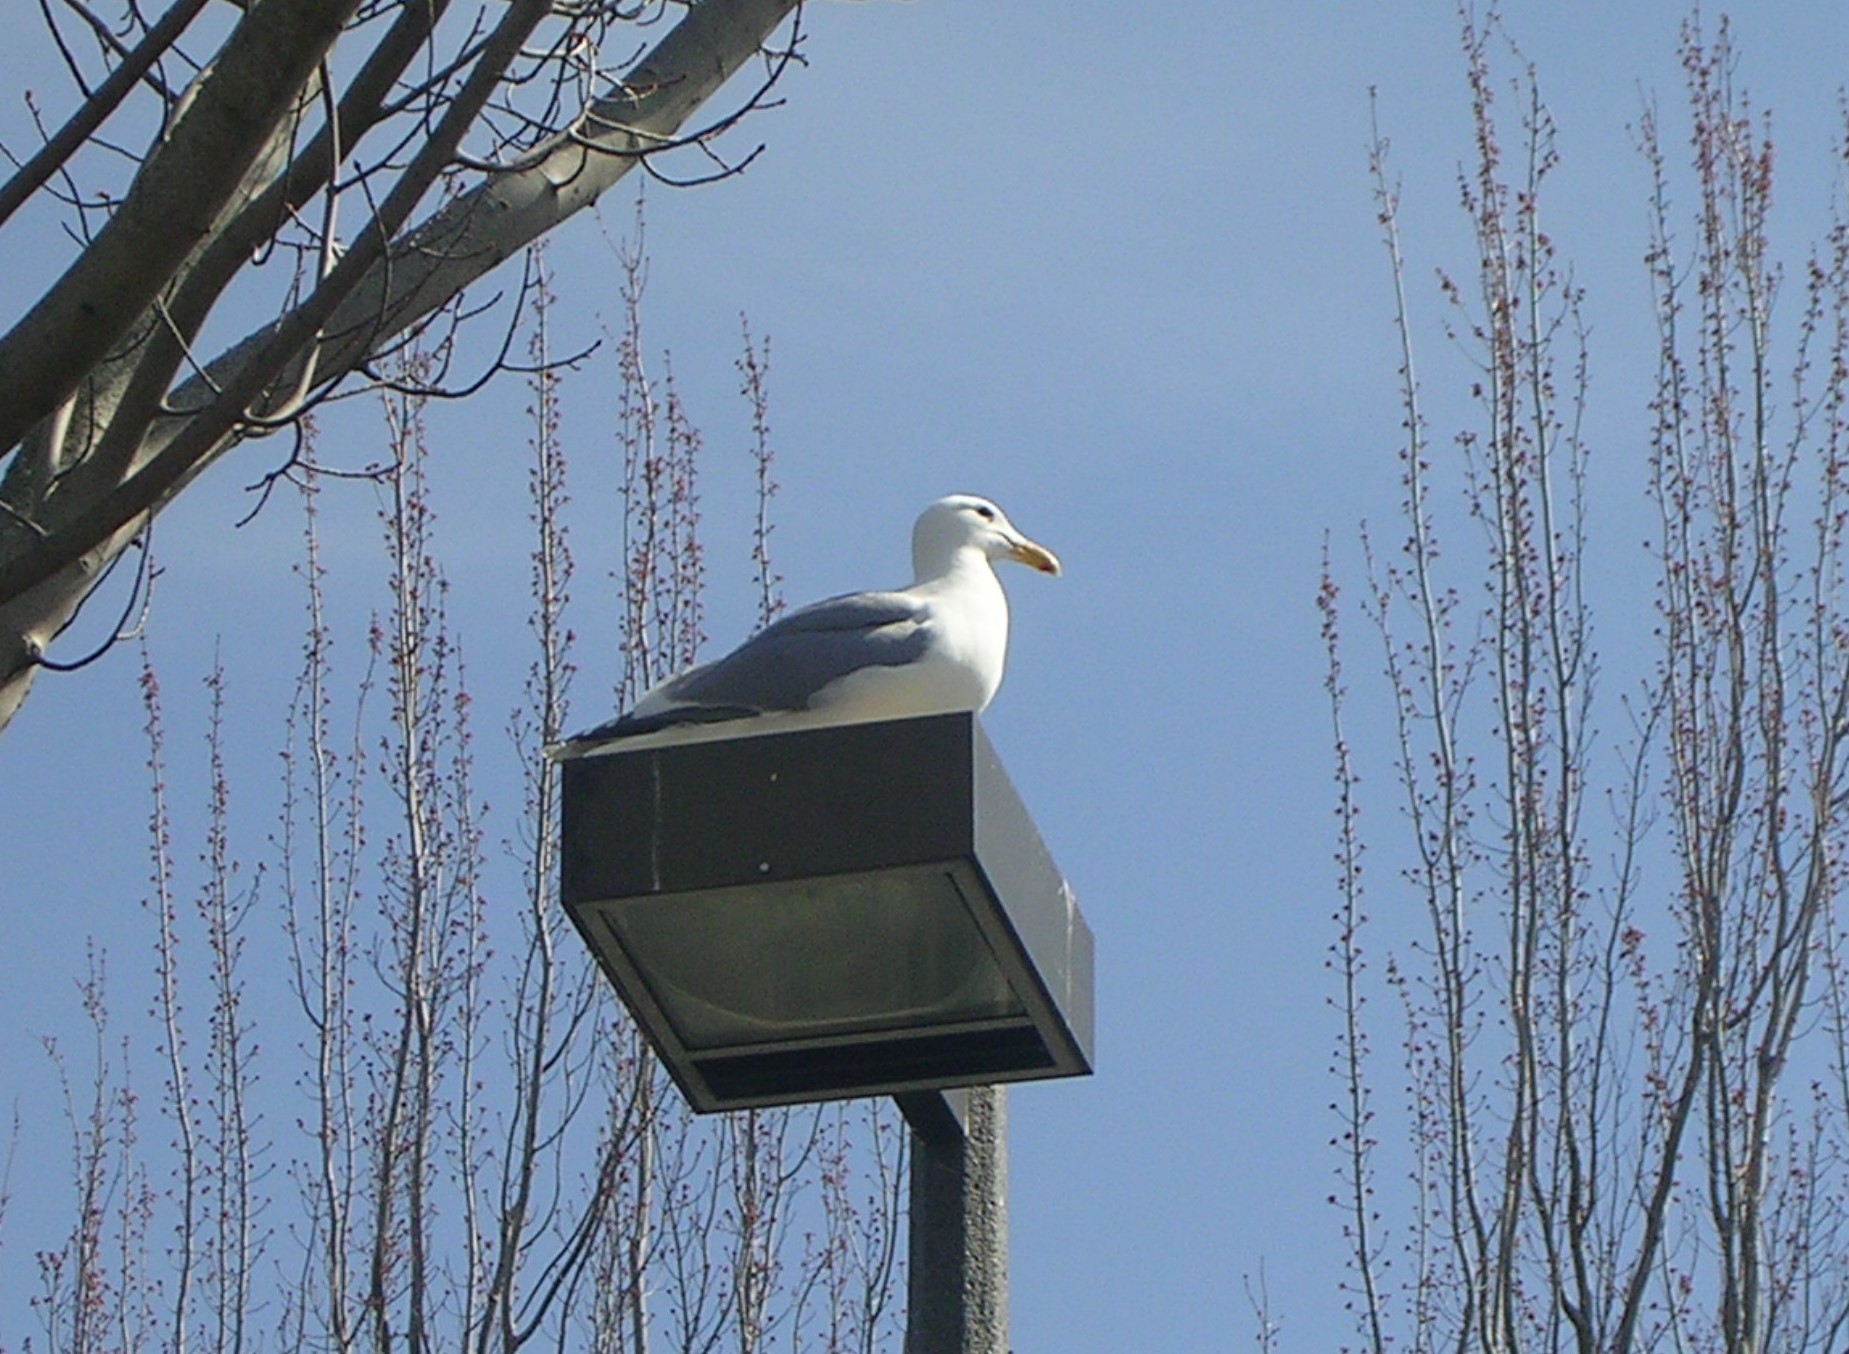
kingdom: Animalia
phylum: Chordata
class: Aves
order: Charadriiformes
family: Laridae
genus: Larus
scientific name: Larus
